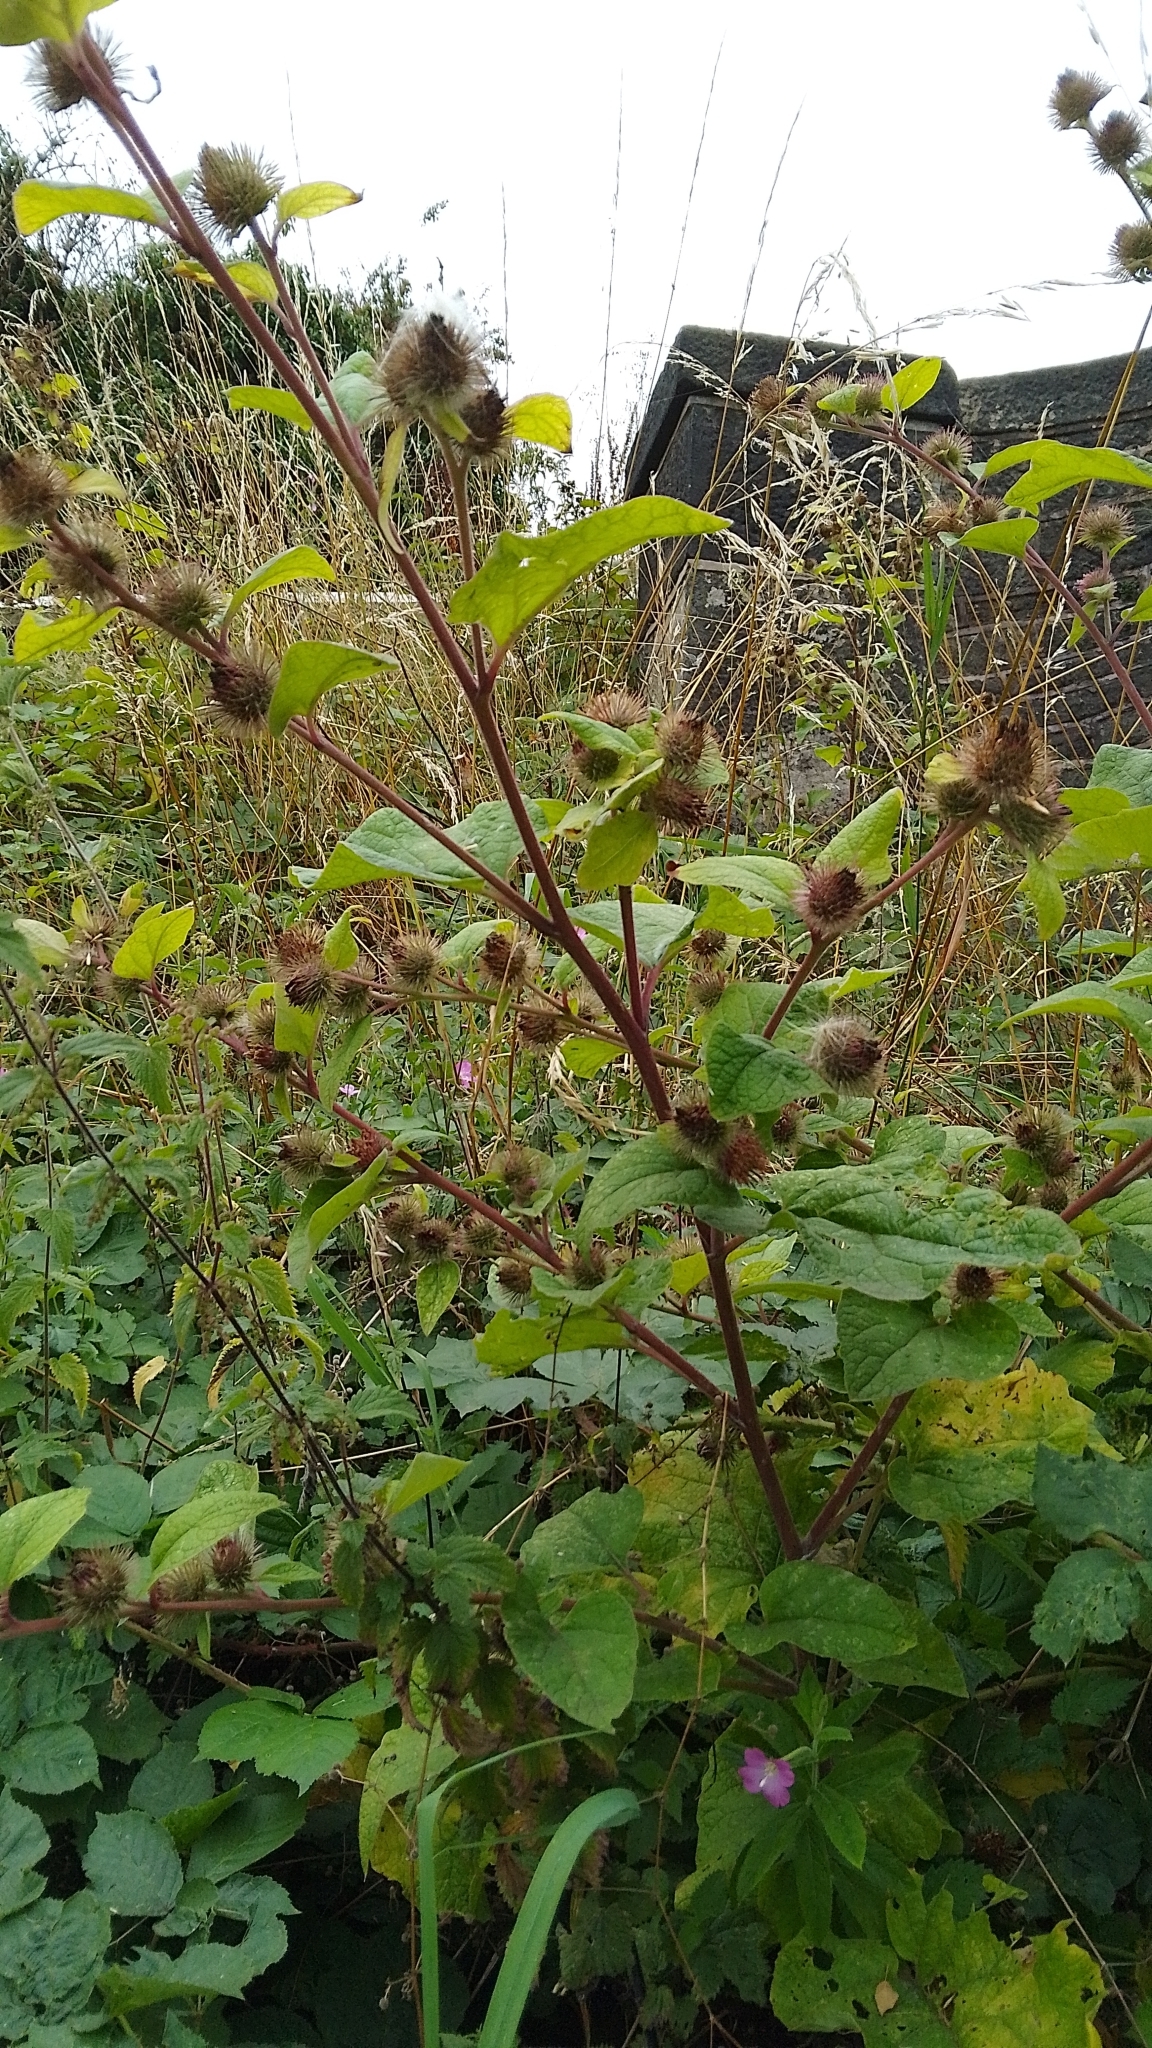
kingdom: Plantae
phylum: Tracheophyta
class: Magnoliopsida
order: Asterales
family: Asteraceae
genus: Arctium
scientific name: Arctium minus
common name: Lesser burdock
